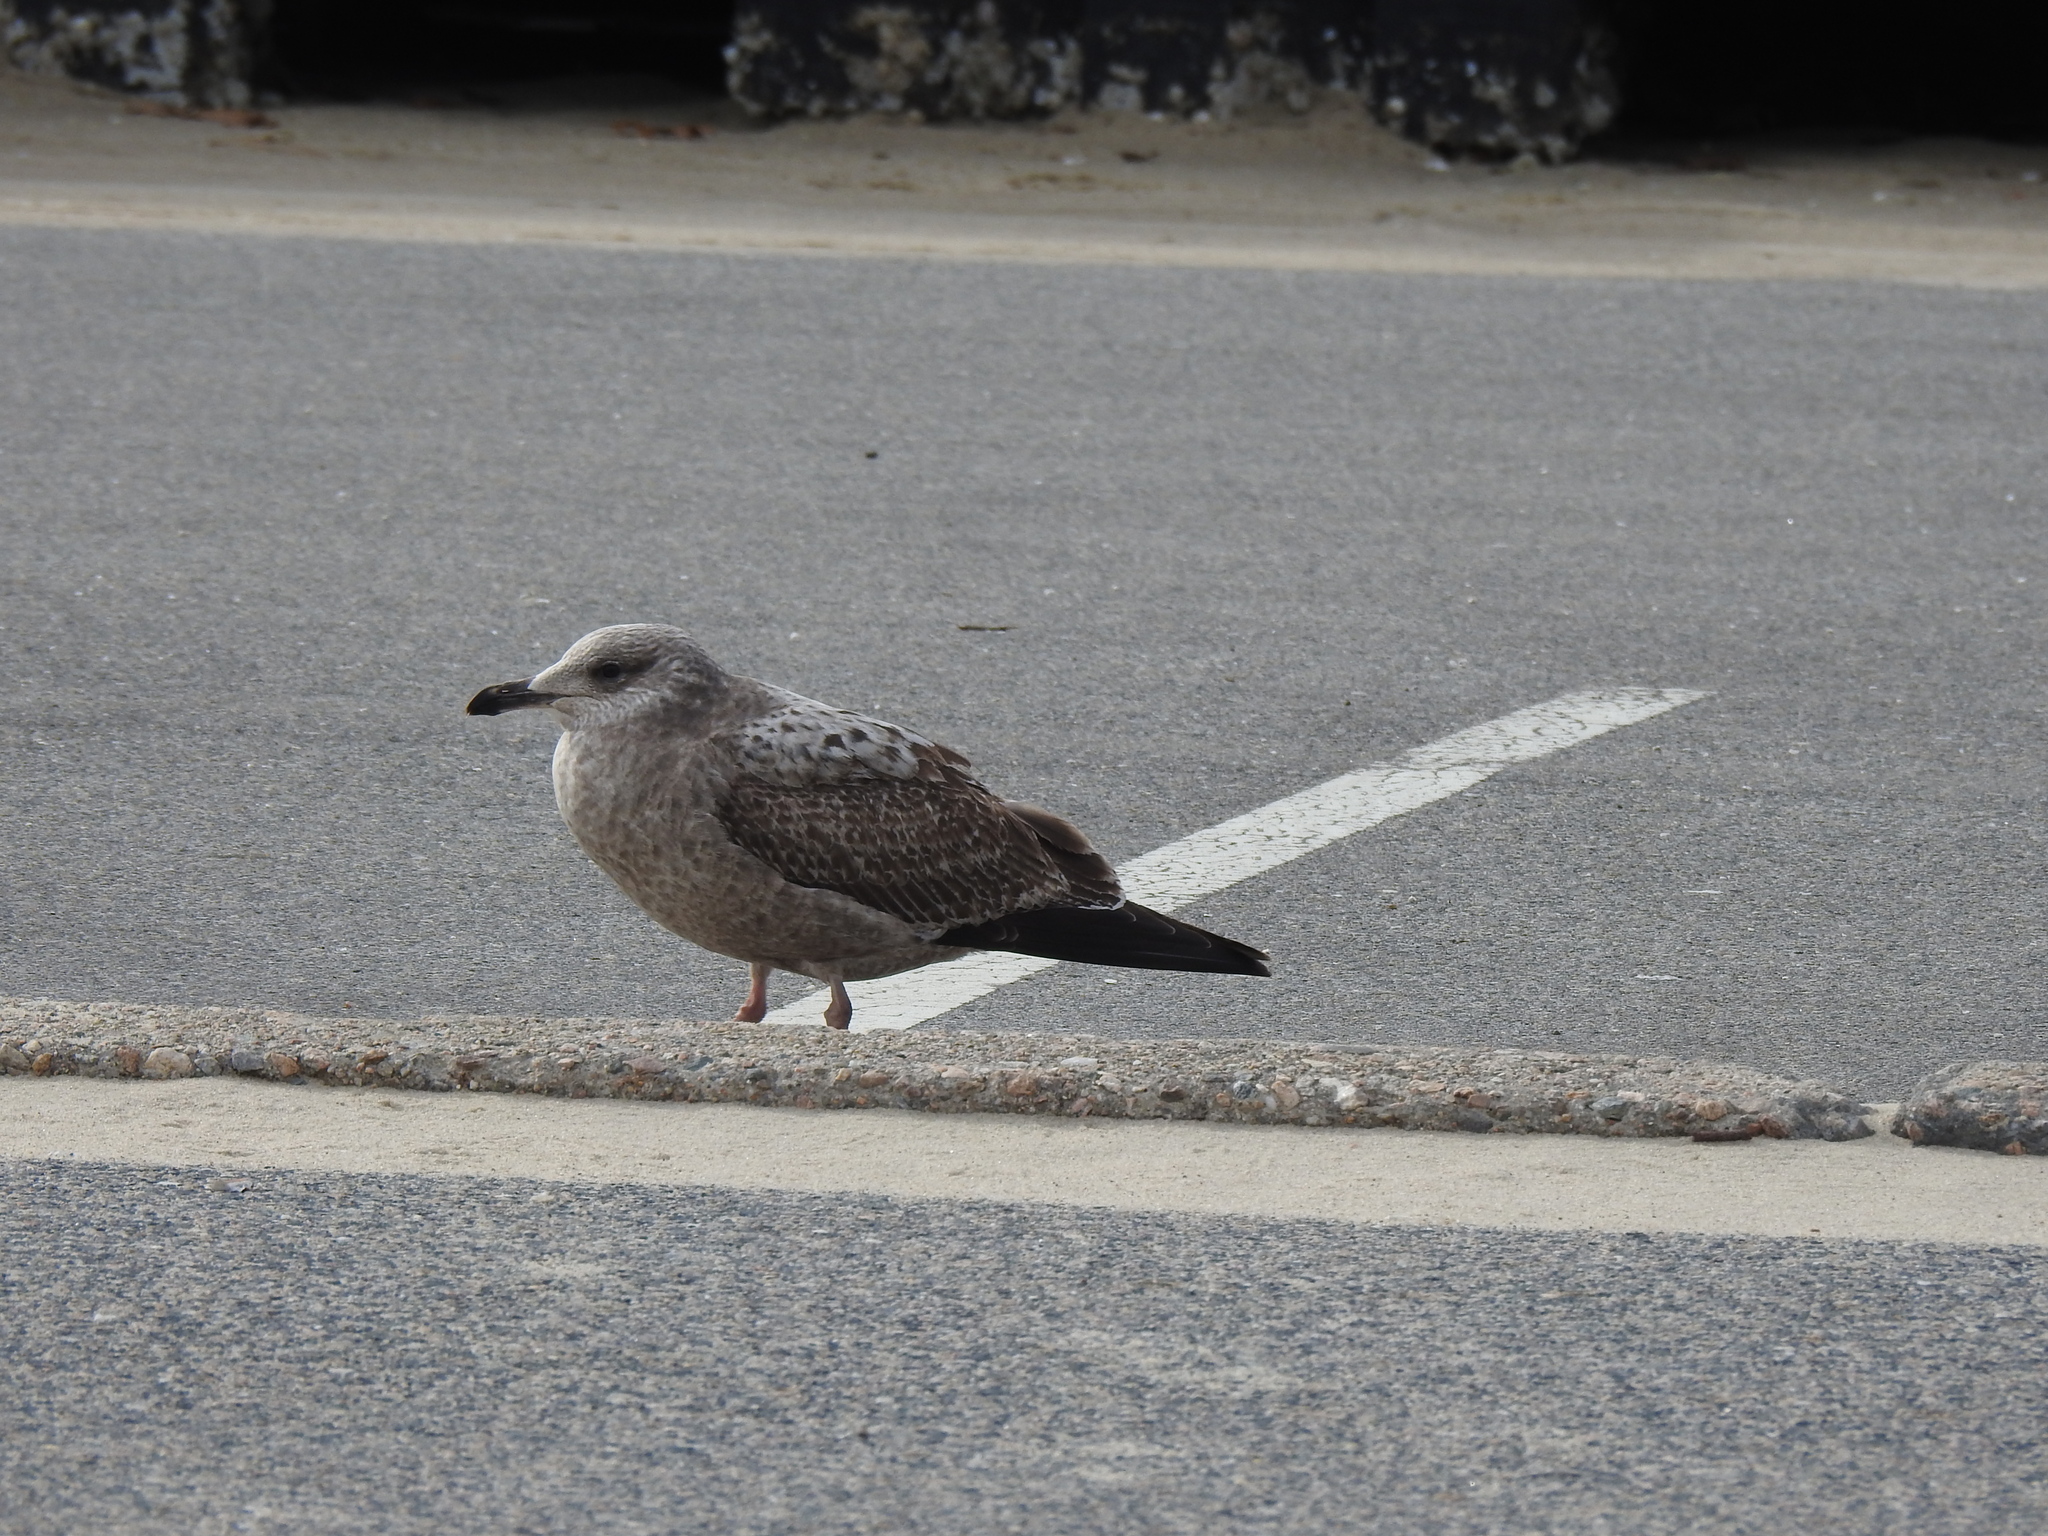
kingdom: Animalia
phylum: Chordata
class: Aves
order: Charadriiformes
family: Laridae
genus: Larus
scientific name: Larus smithsonianus
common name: American herring gull
